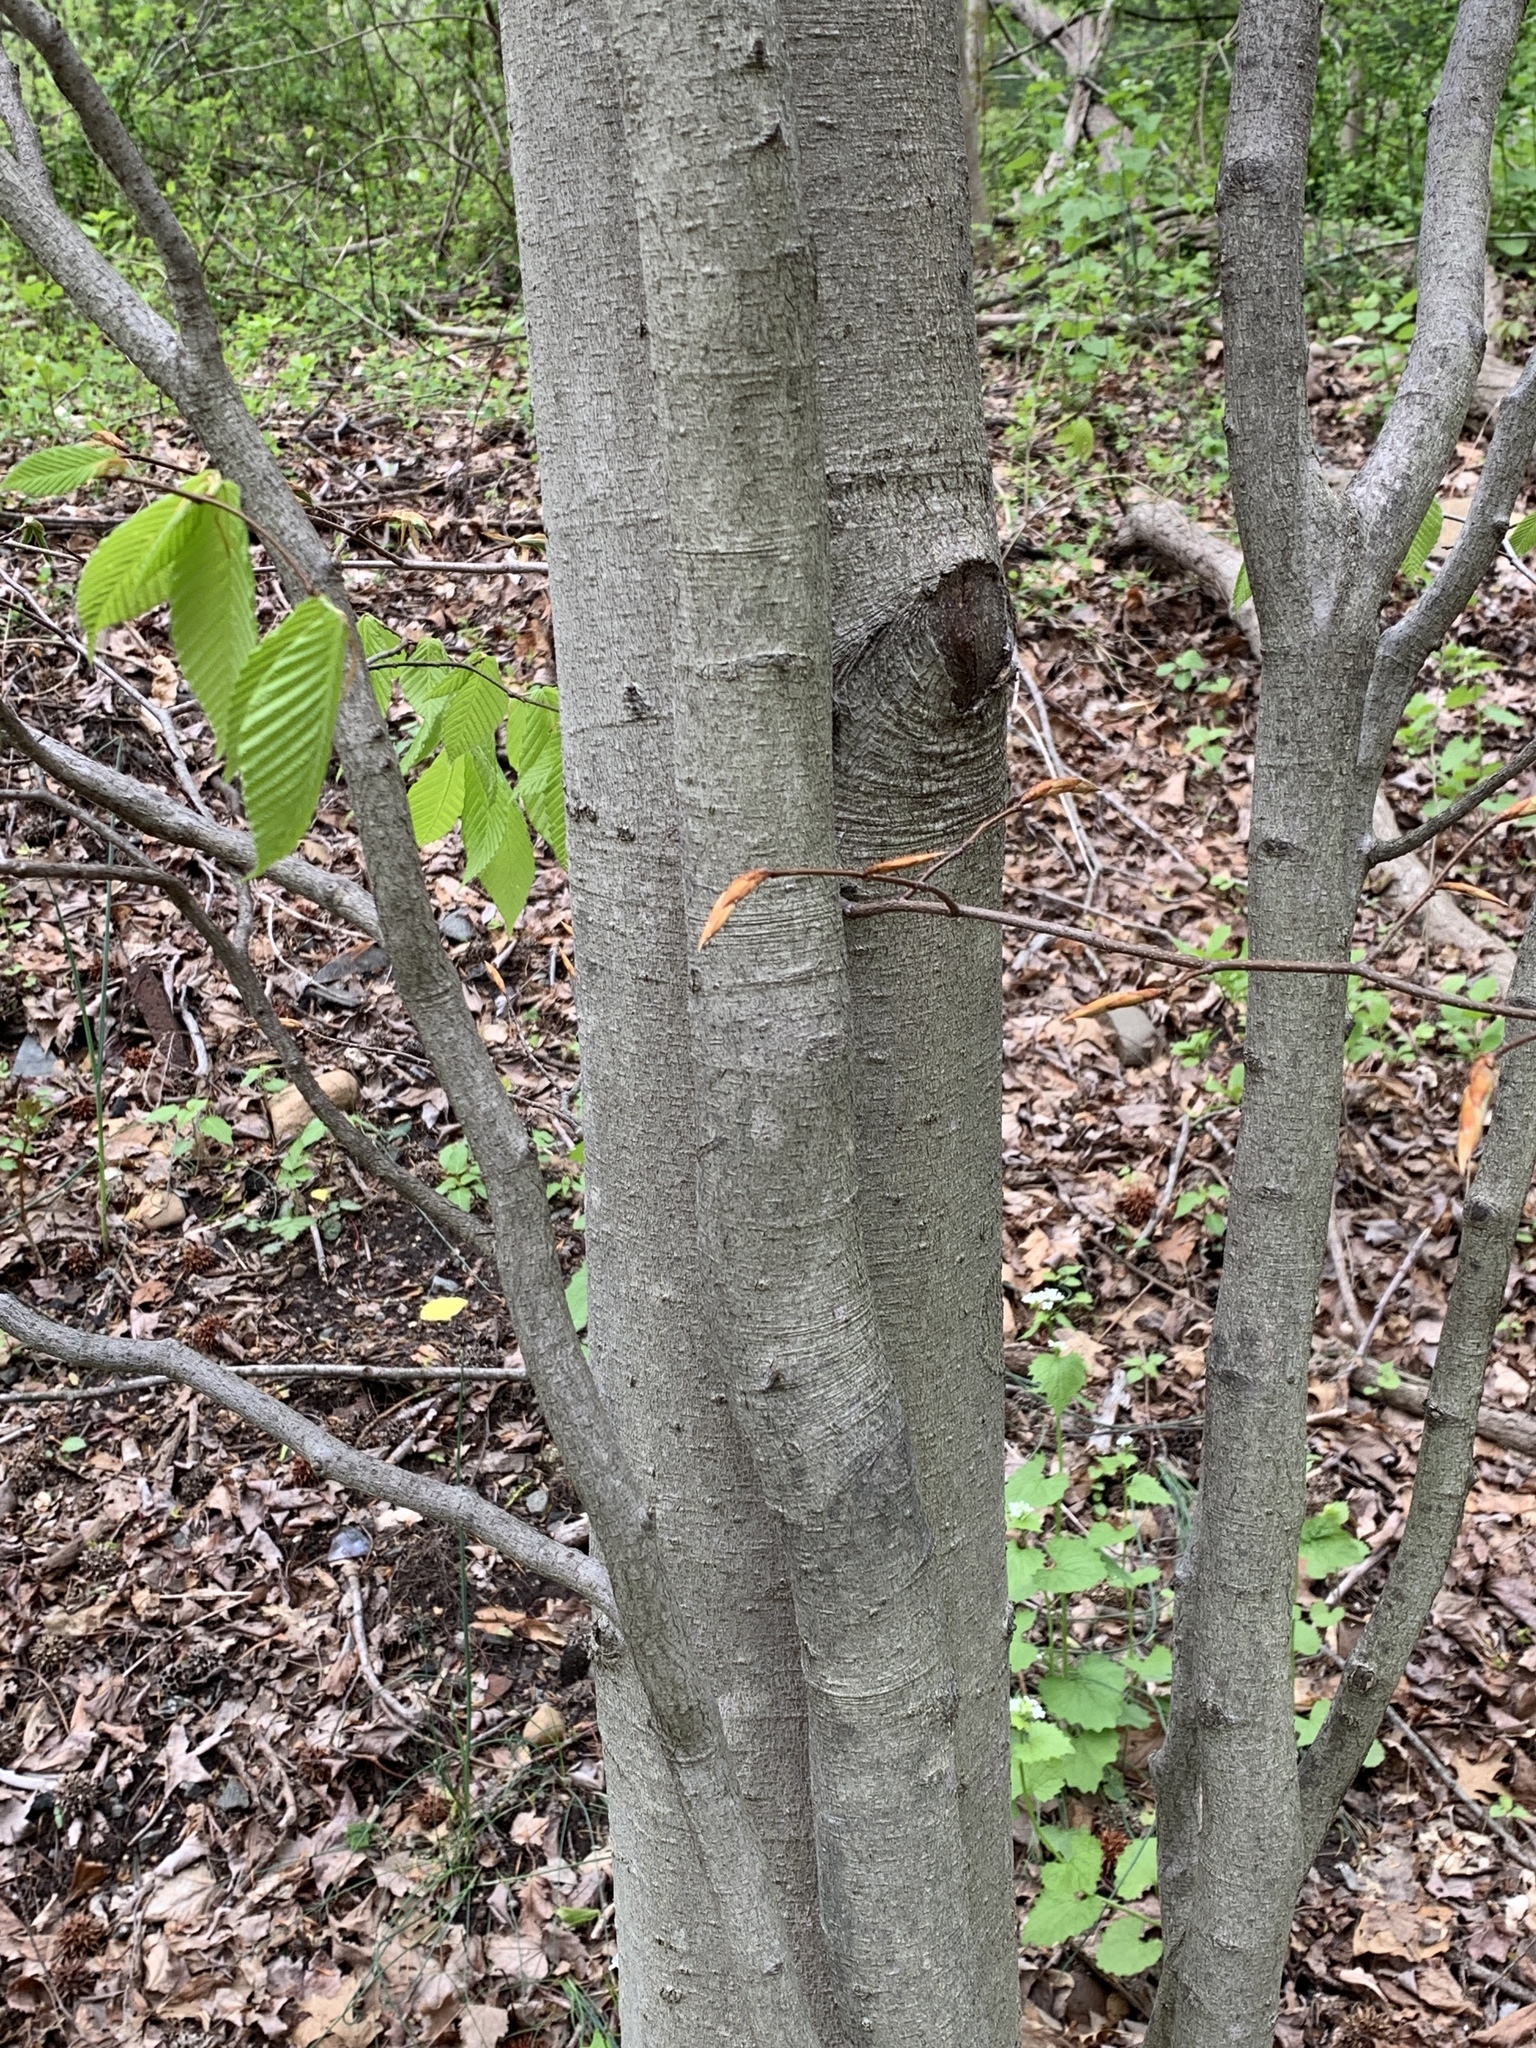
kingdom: Plantae
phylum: Tracheophyta
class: Magnoliopsida
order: Fagales
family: Fagaceae
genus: Fagus
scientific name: Fagus grandifolia
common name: American beech
